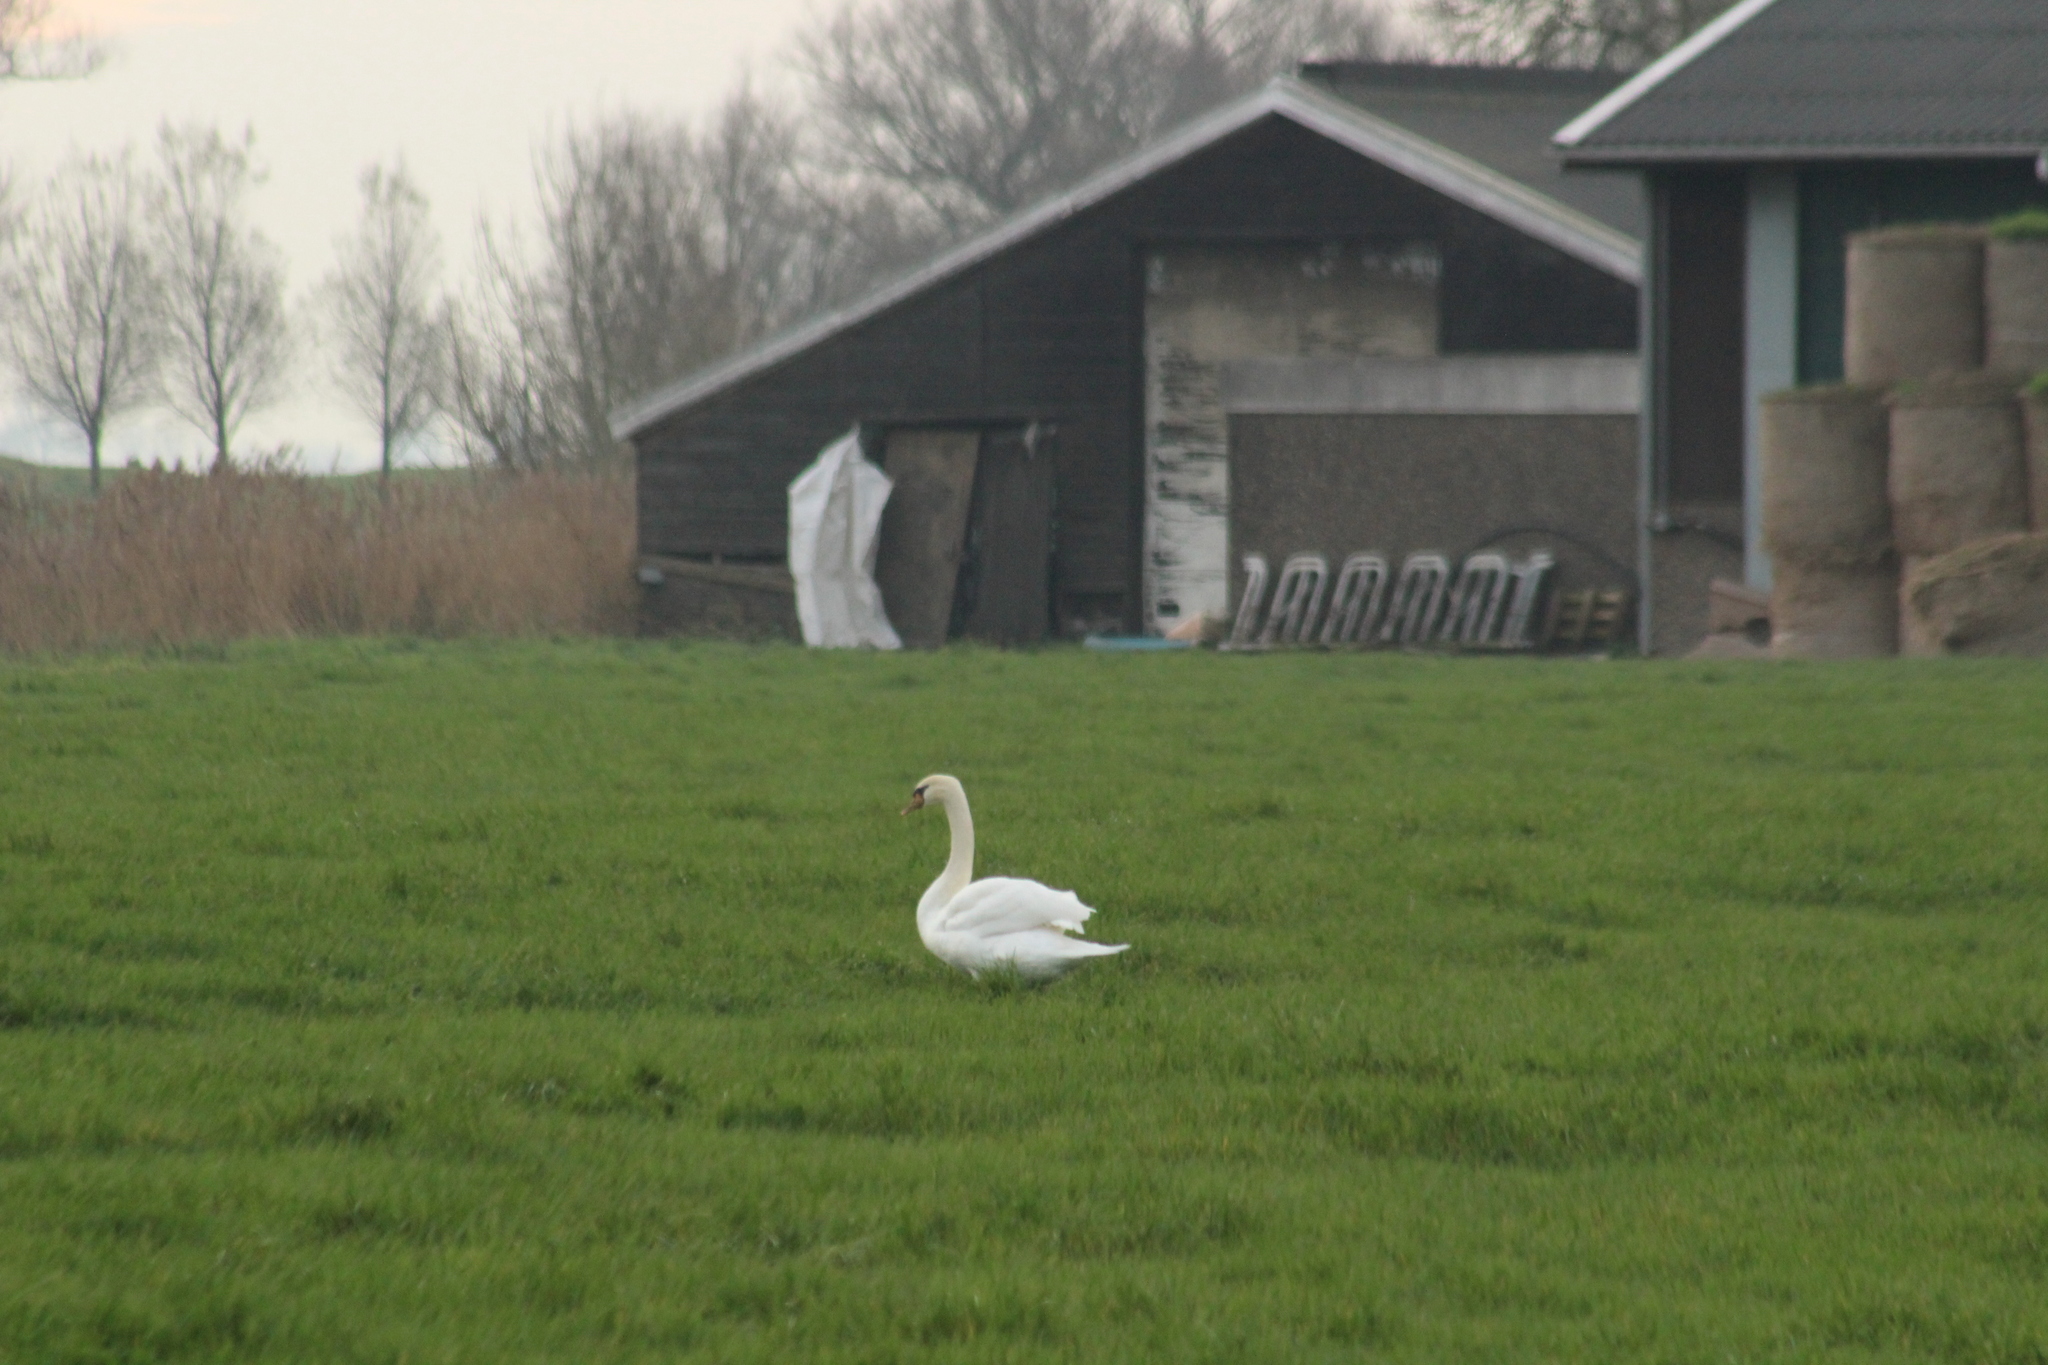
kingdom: Animalia
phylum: Chordata
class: Aves
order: Anseriformes
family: Anatidae
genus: Cygnus
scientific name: Cygnus olor
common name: Mute swan
